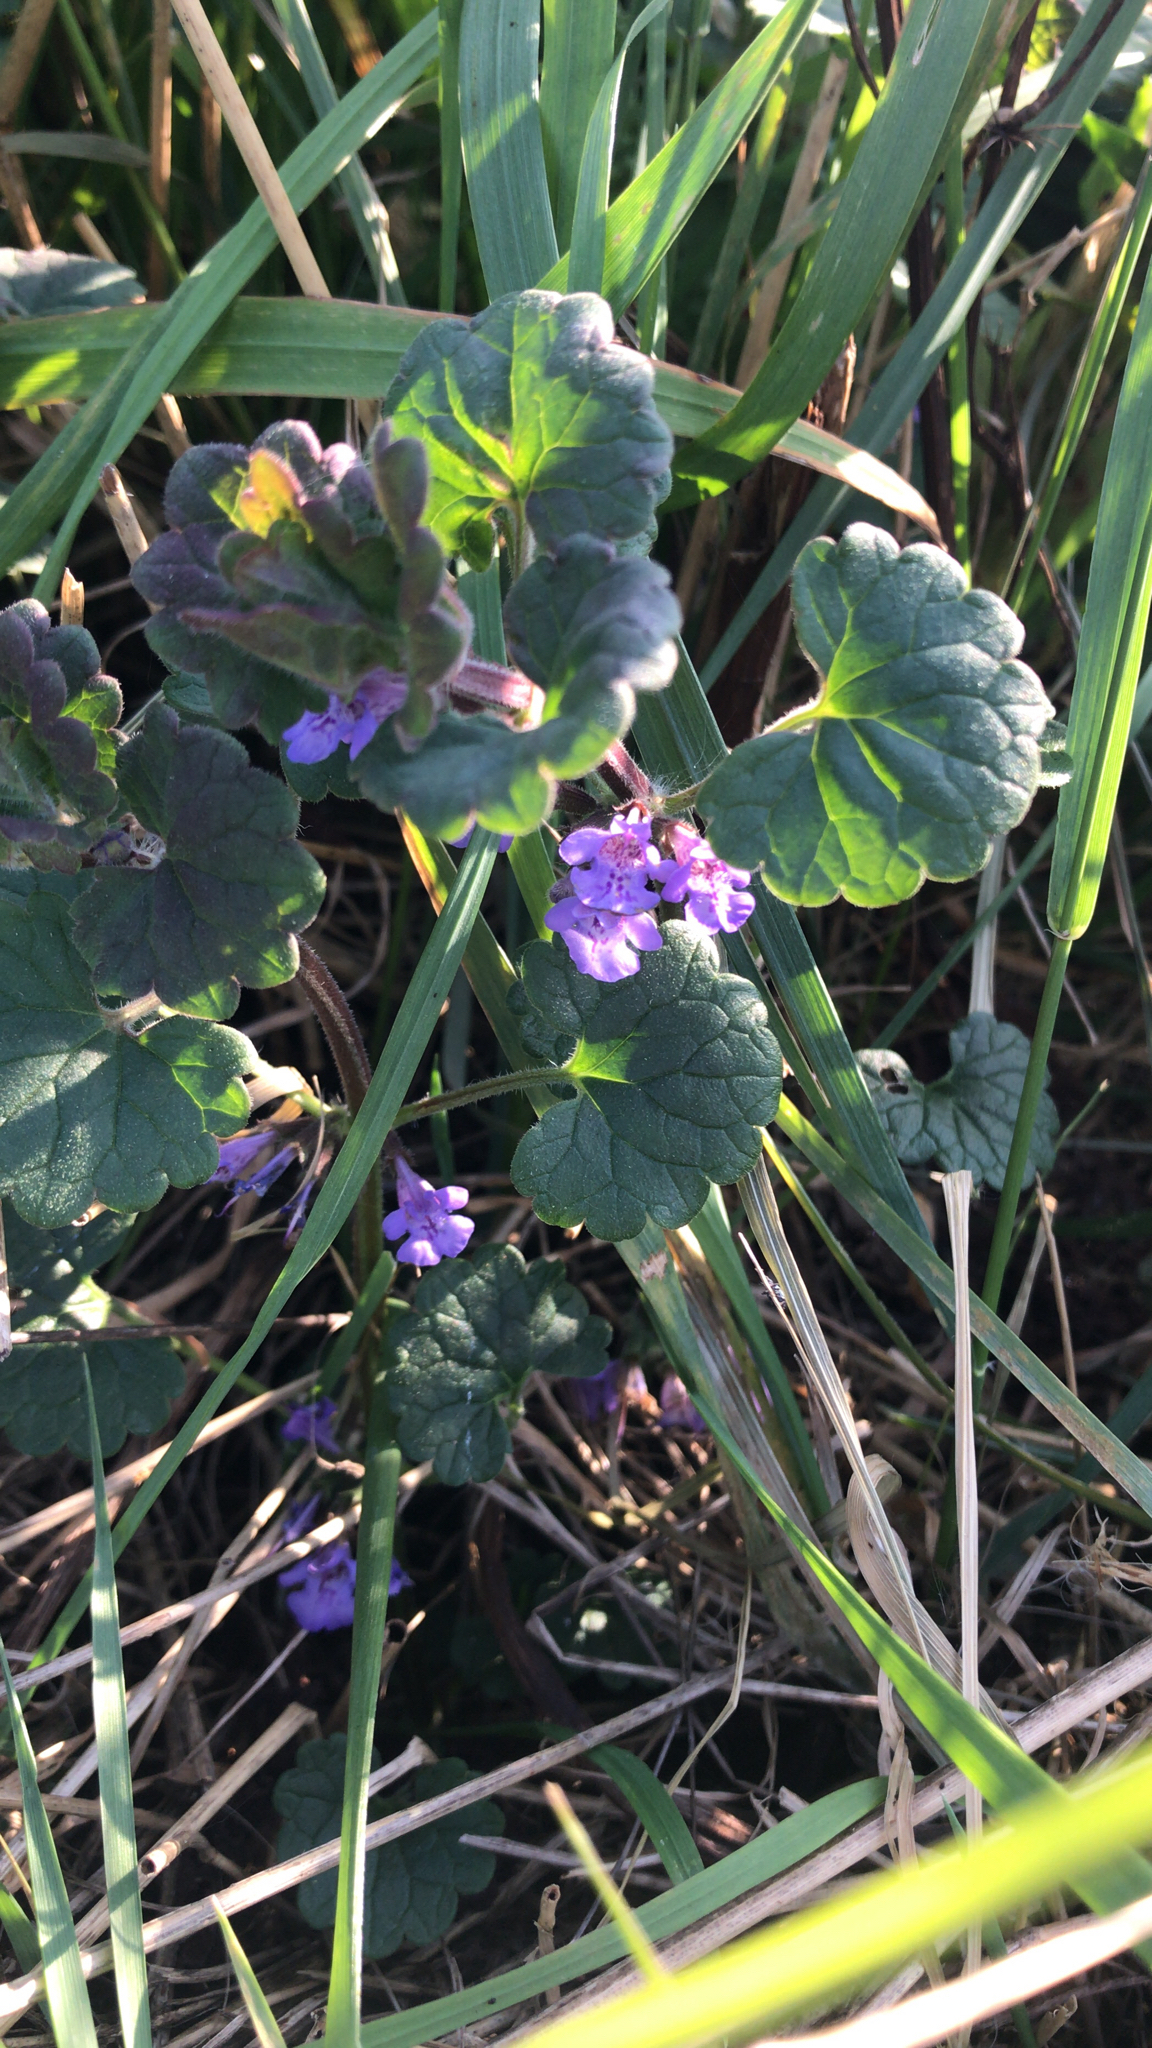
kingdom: Plantae
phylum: Tracheophyta
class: Magnoliopsida
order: Lamiales
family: Lamiaceae
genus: Glechoma
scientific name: Glechoma hederacea
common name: Ground ivy
